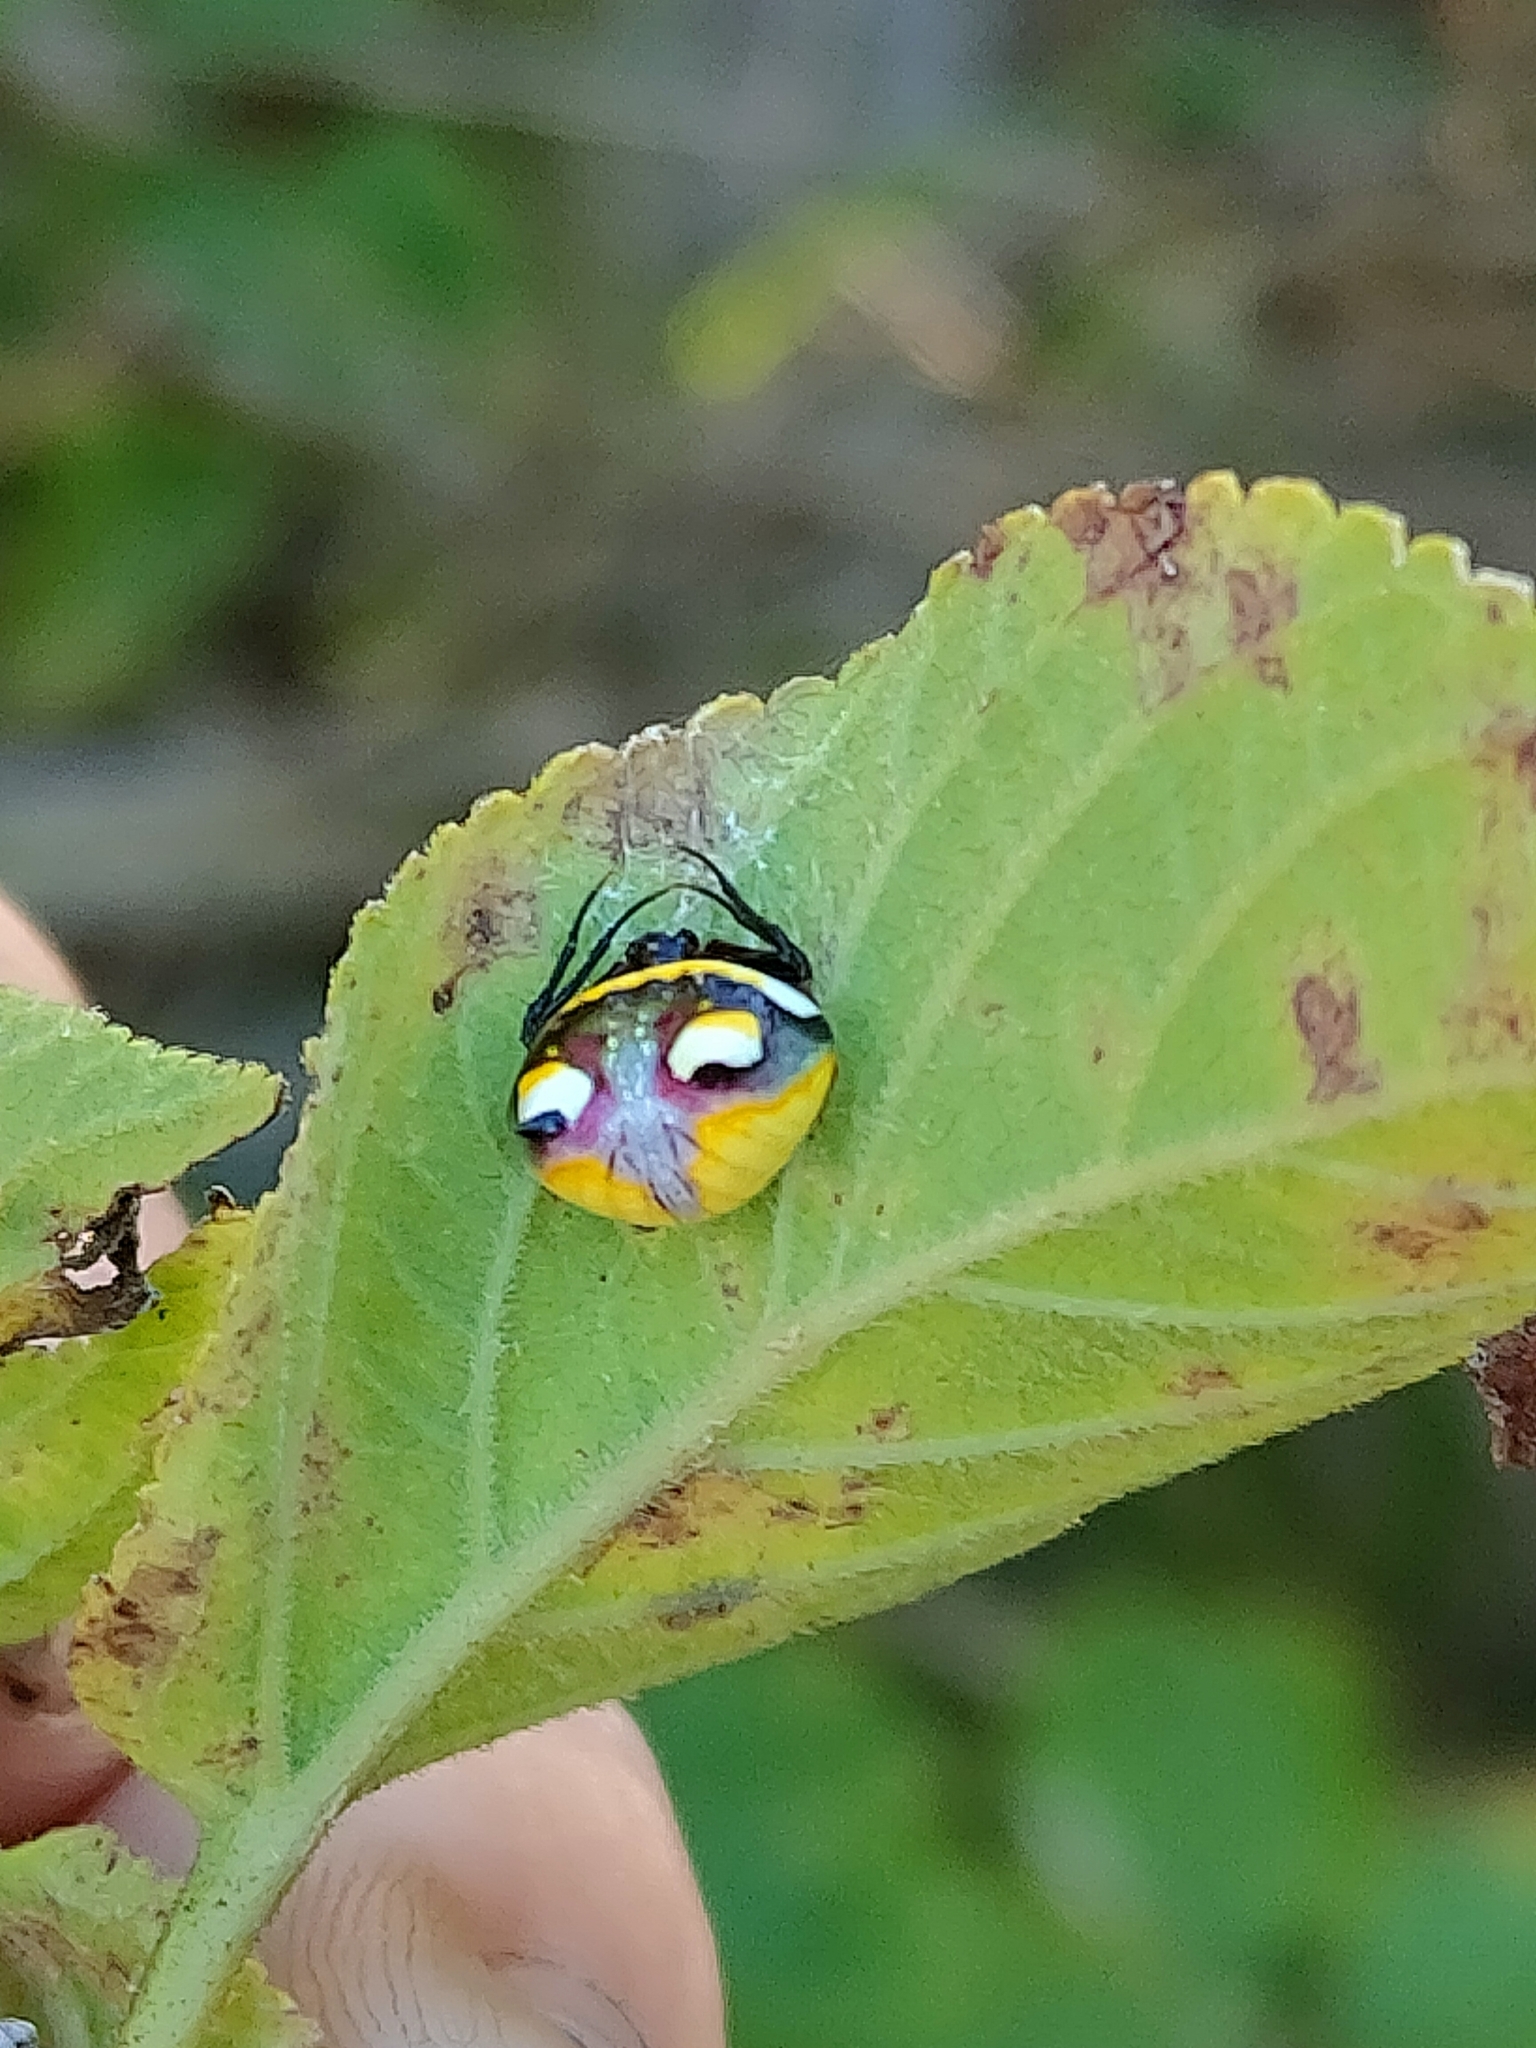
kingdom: Animalia
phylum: Arthropoda
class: Arachnida
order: Araneae
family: Araneidae
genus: Poecilopachys
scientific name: Poecilopachys australasia
